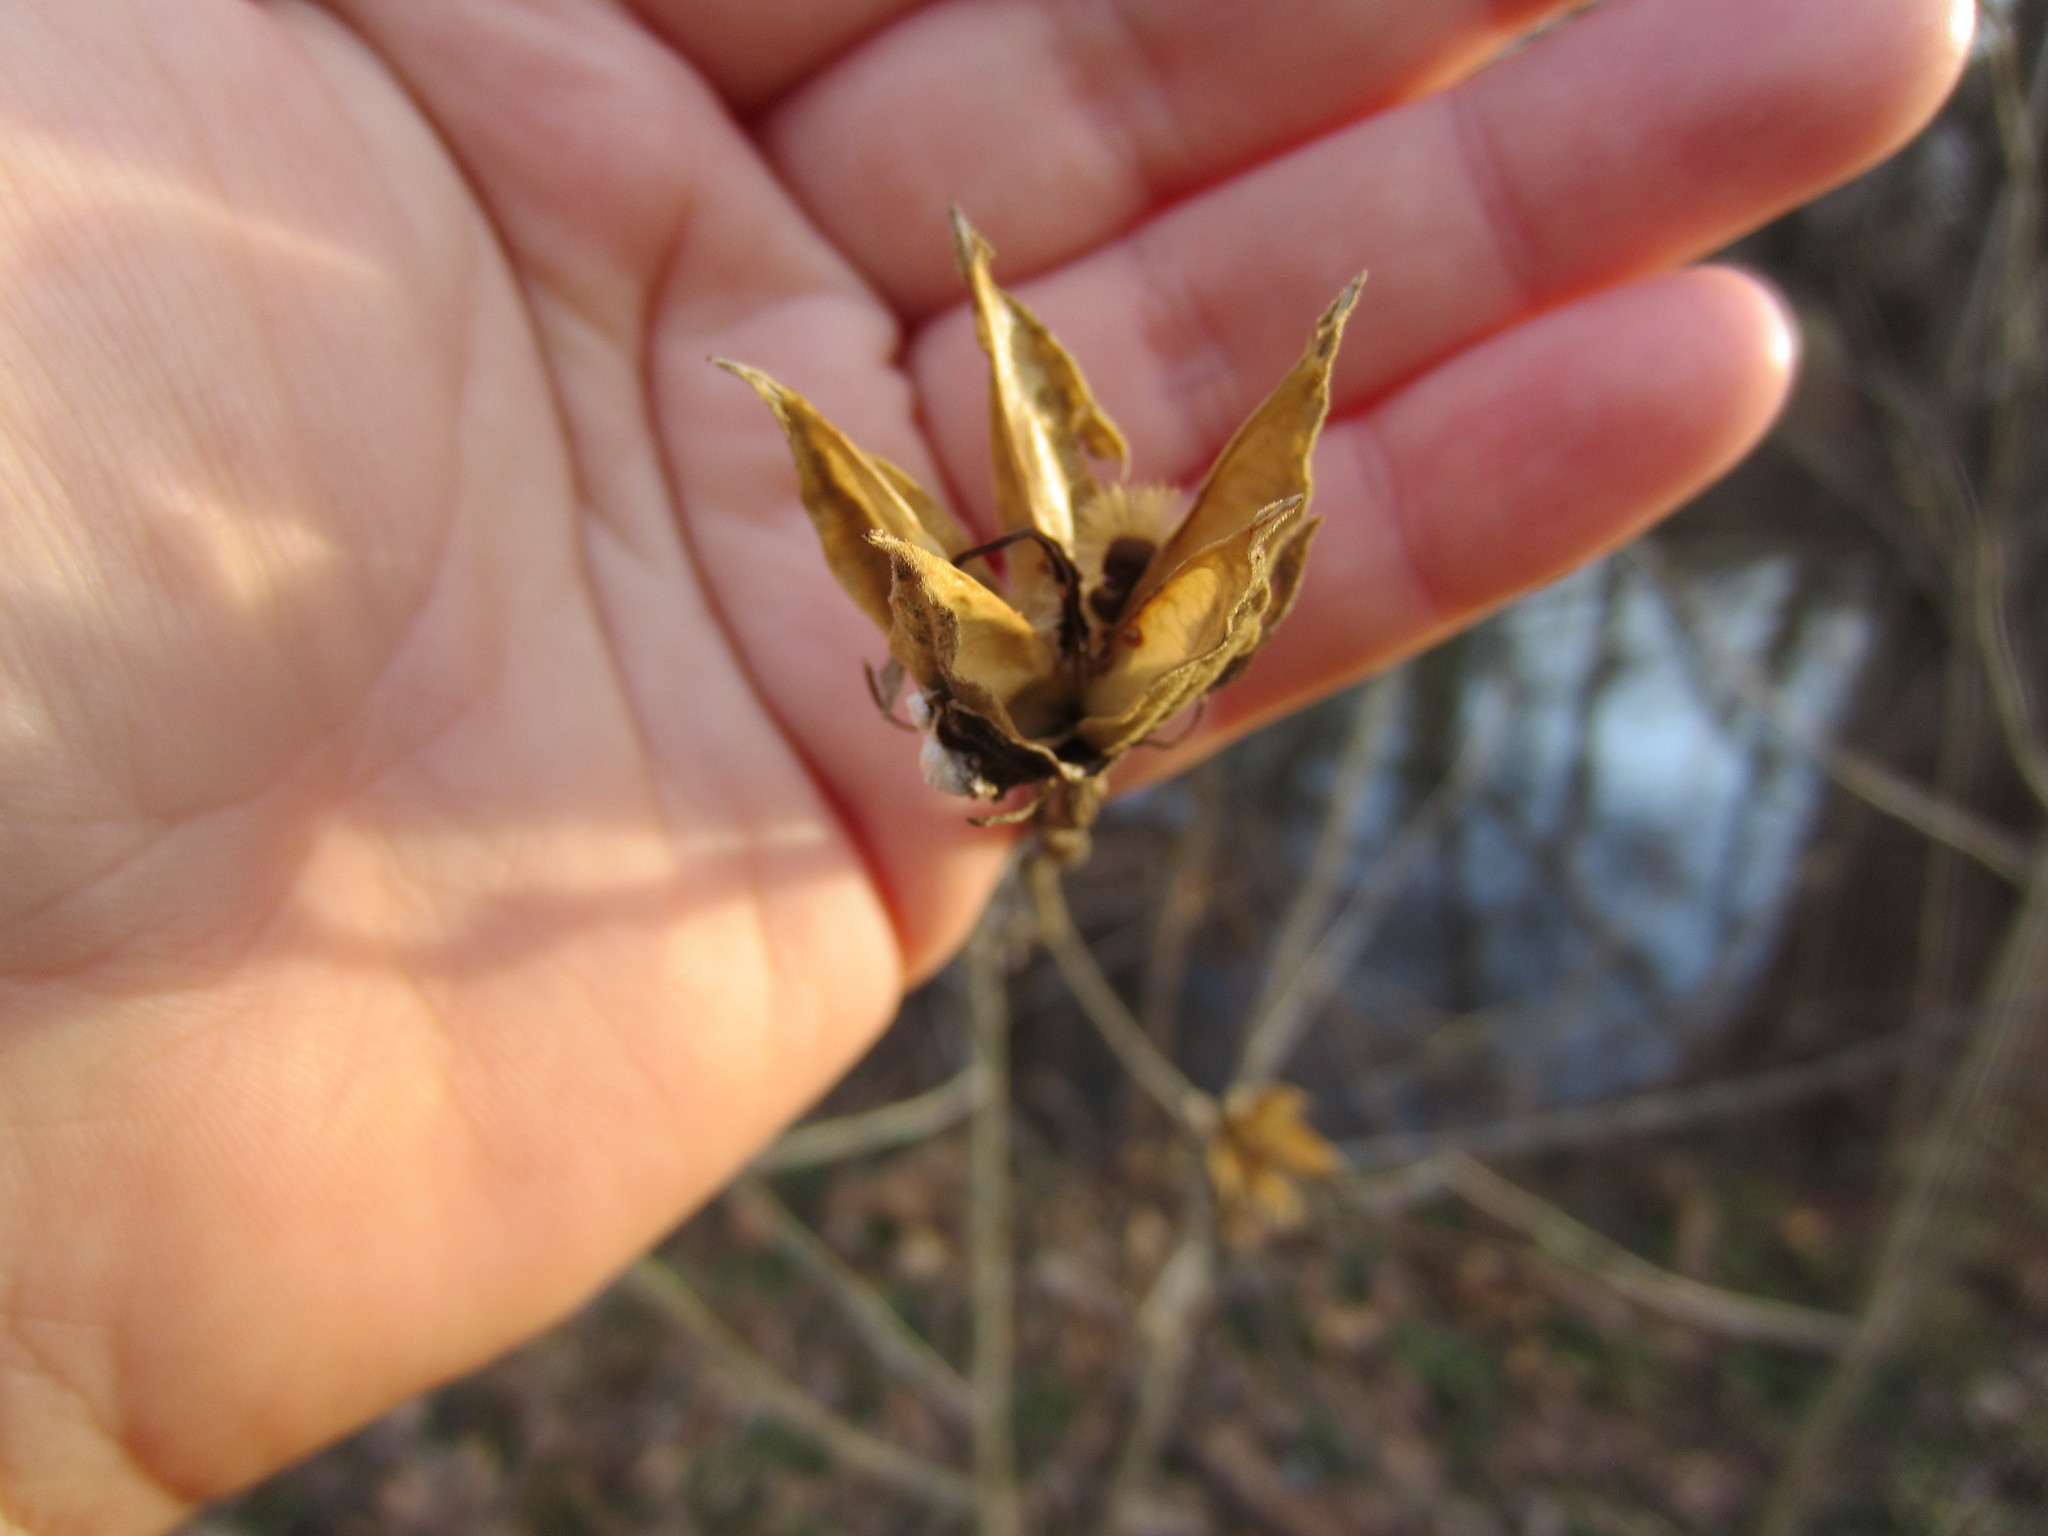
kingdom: Plantae
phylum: Tracheophyta
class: Magnoliopsida
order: Malvales
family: Malvaceae
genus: Hibiscus
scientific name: Hibiscus syriacus
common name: Syrian ketmia
